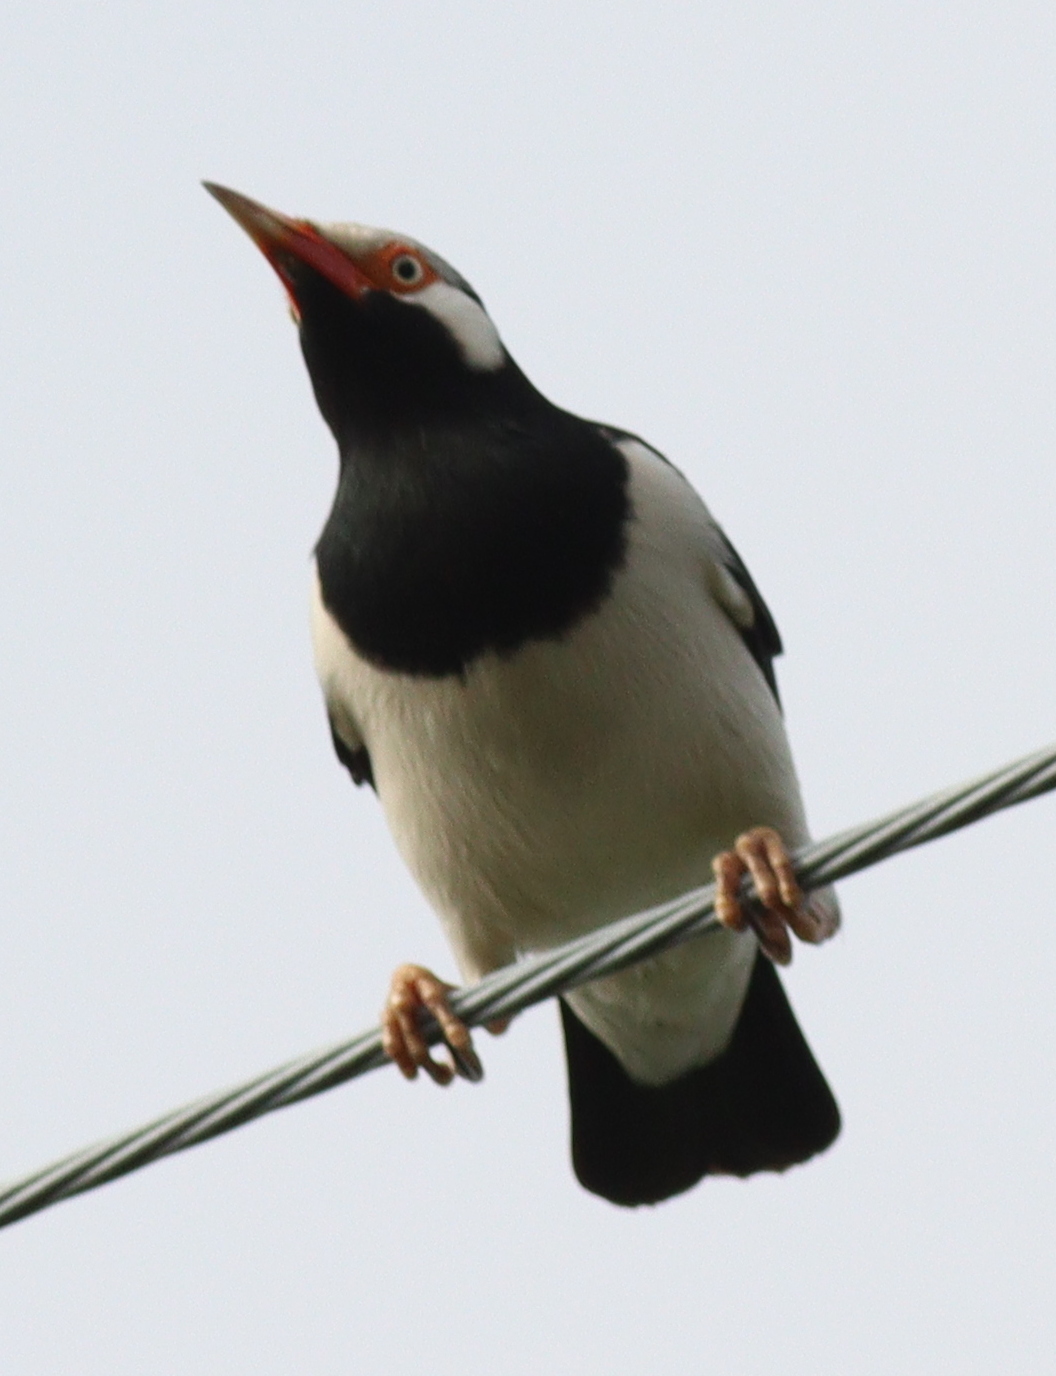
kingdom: Animalia
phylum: Chordata
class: Aves
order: Passeriformes
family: Sturnidae
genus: Gracupica
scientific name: Gracupica contra
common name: Pied myna
